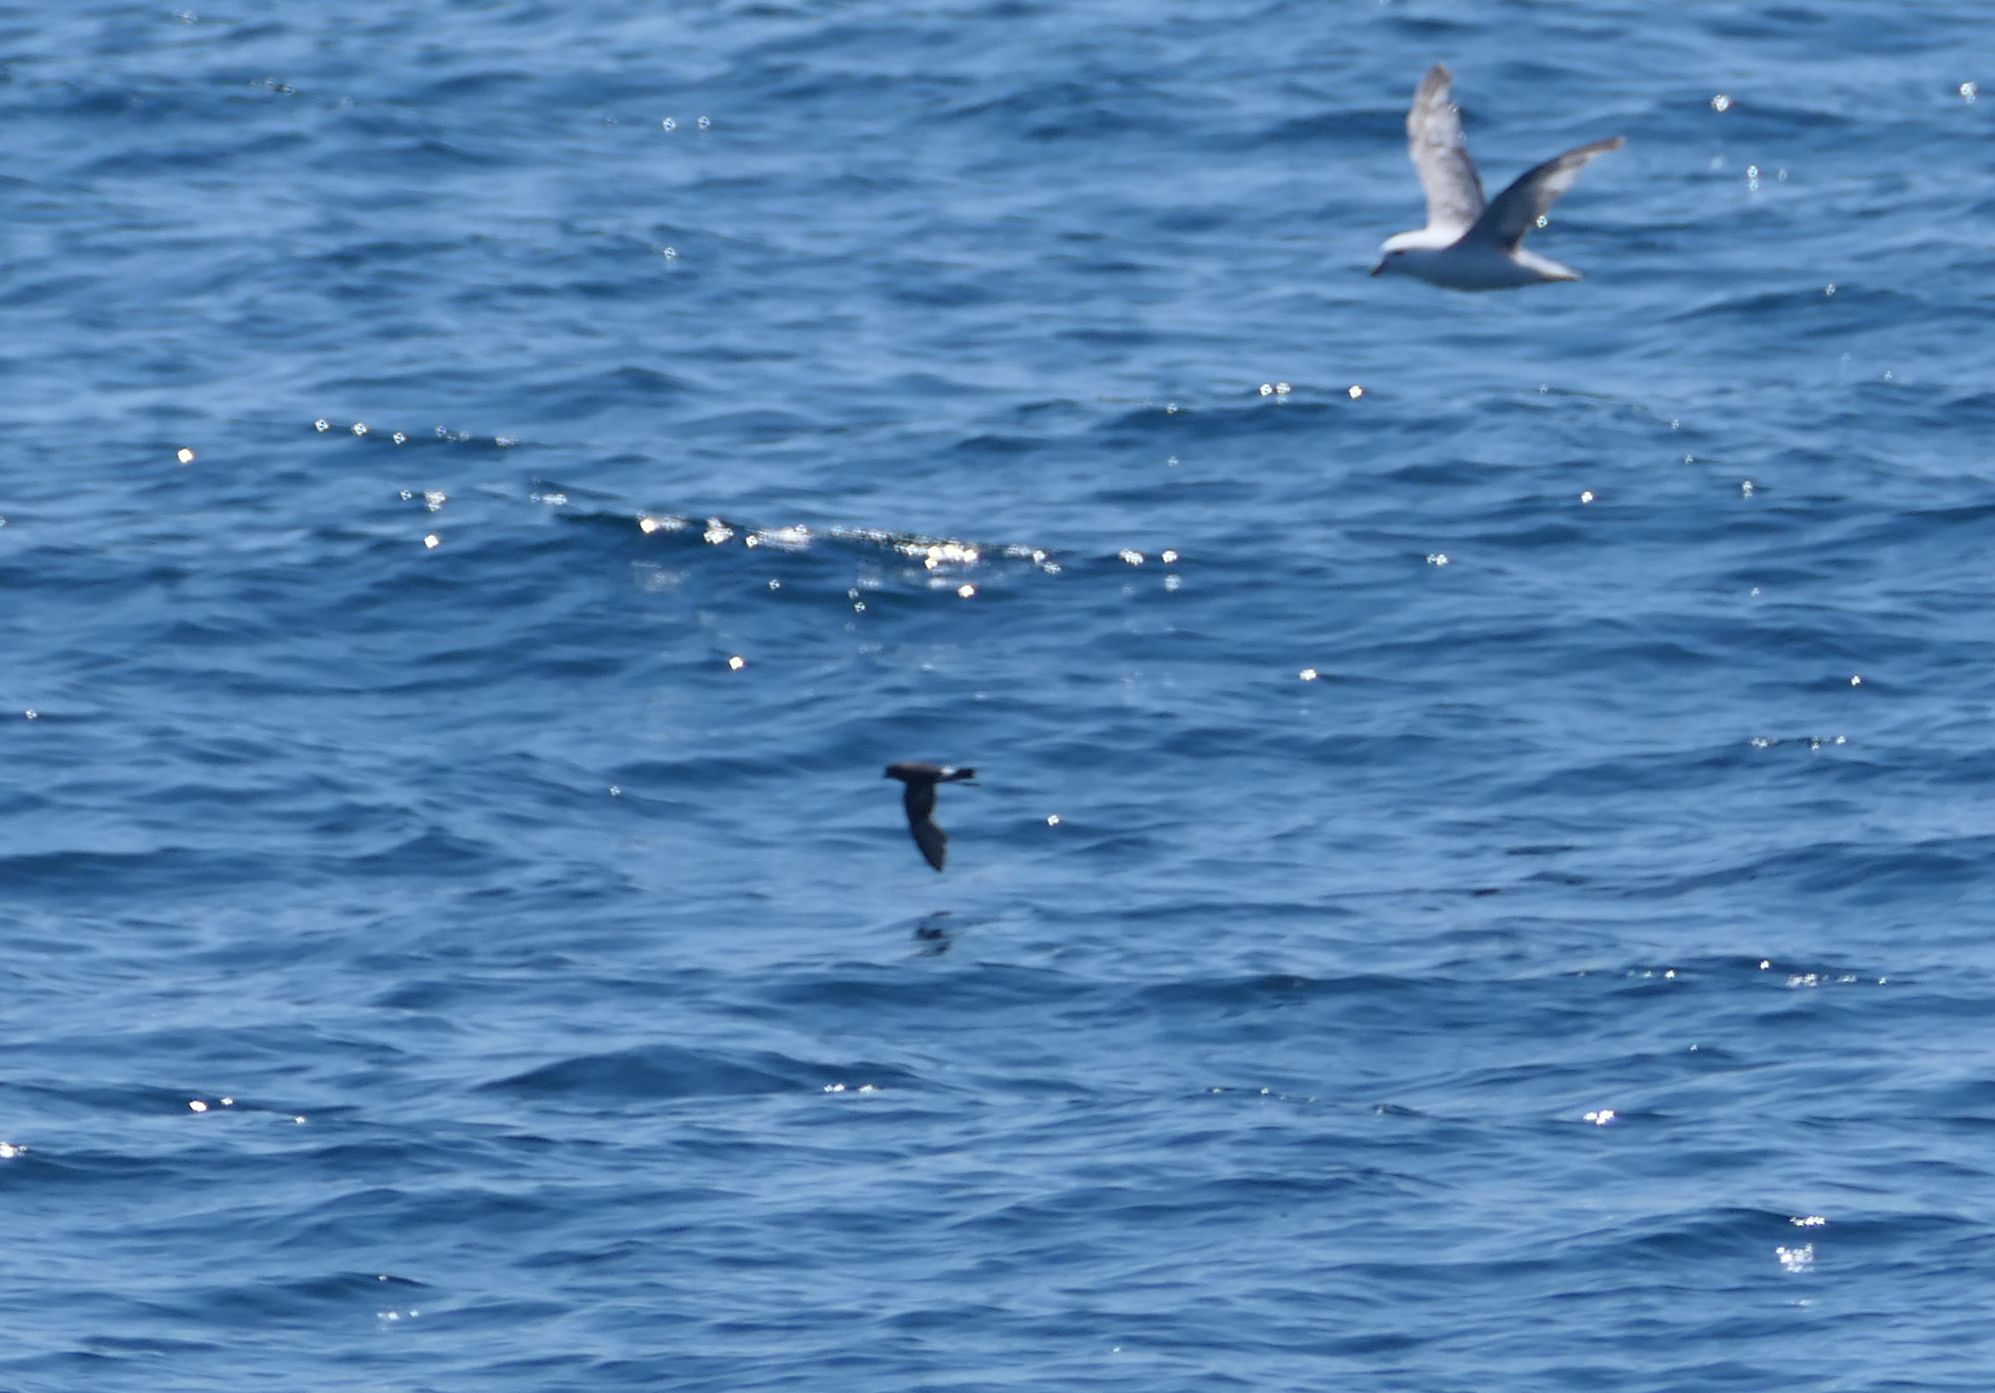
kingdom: Animalia
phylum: Chordata
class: Aves
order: Procellariiformes
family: Hydrobatidae
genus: Oceanites
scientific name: Oceanites oceanicus
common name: Wilson's storm petrel
